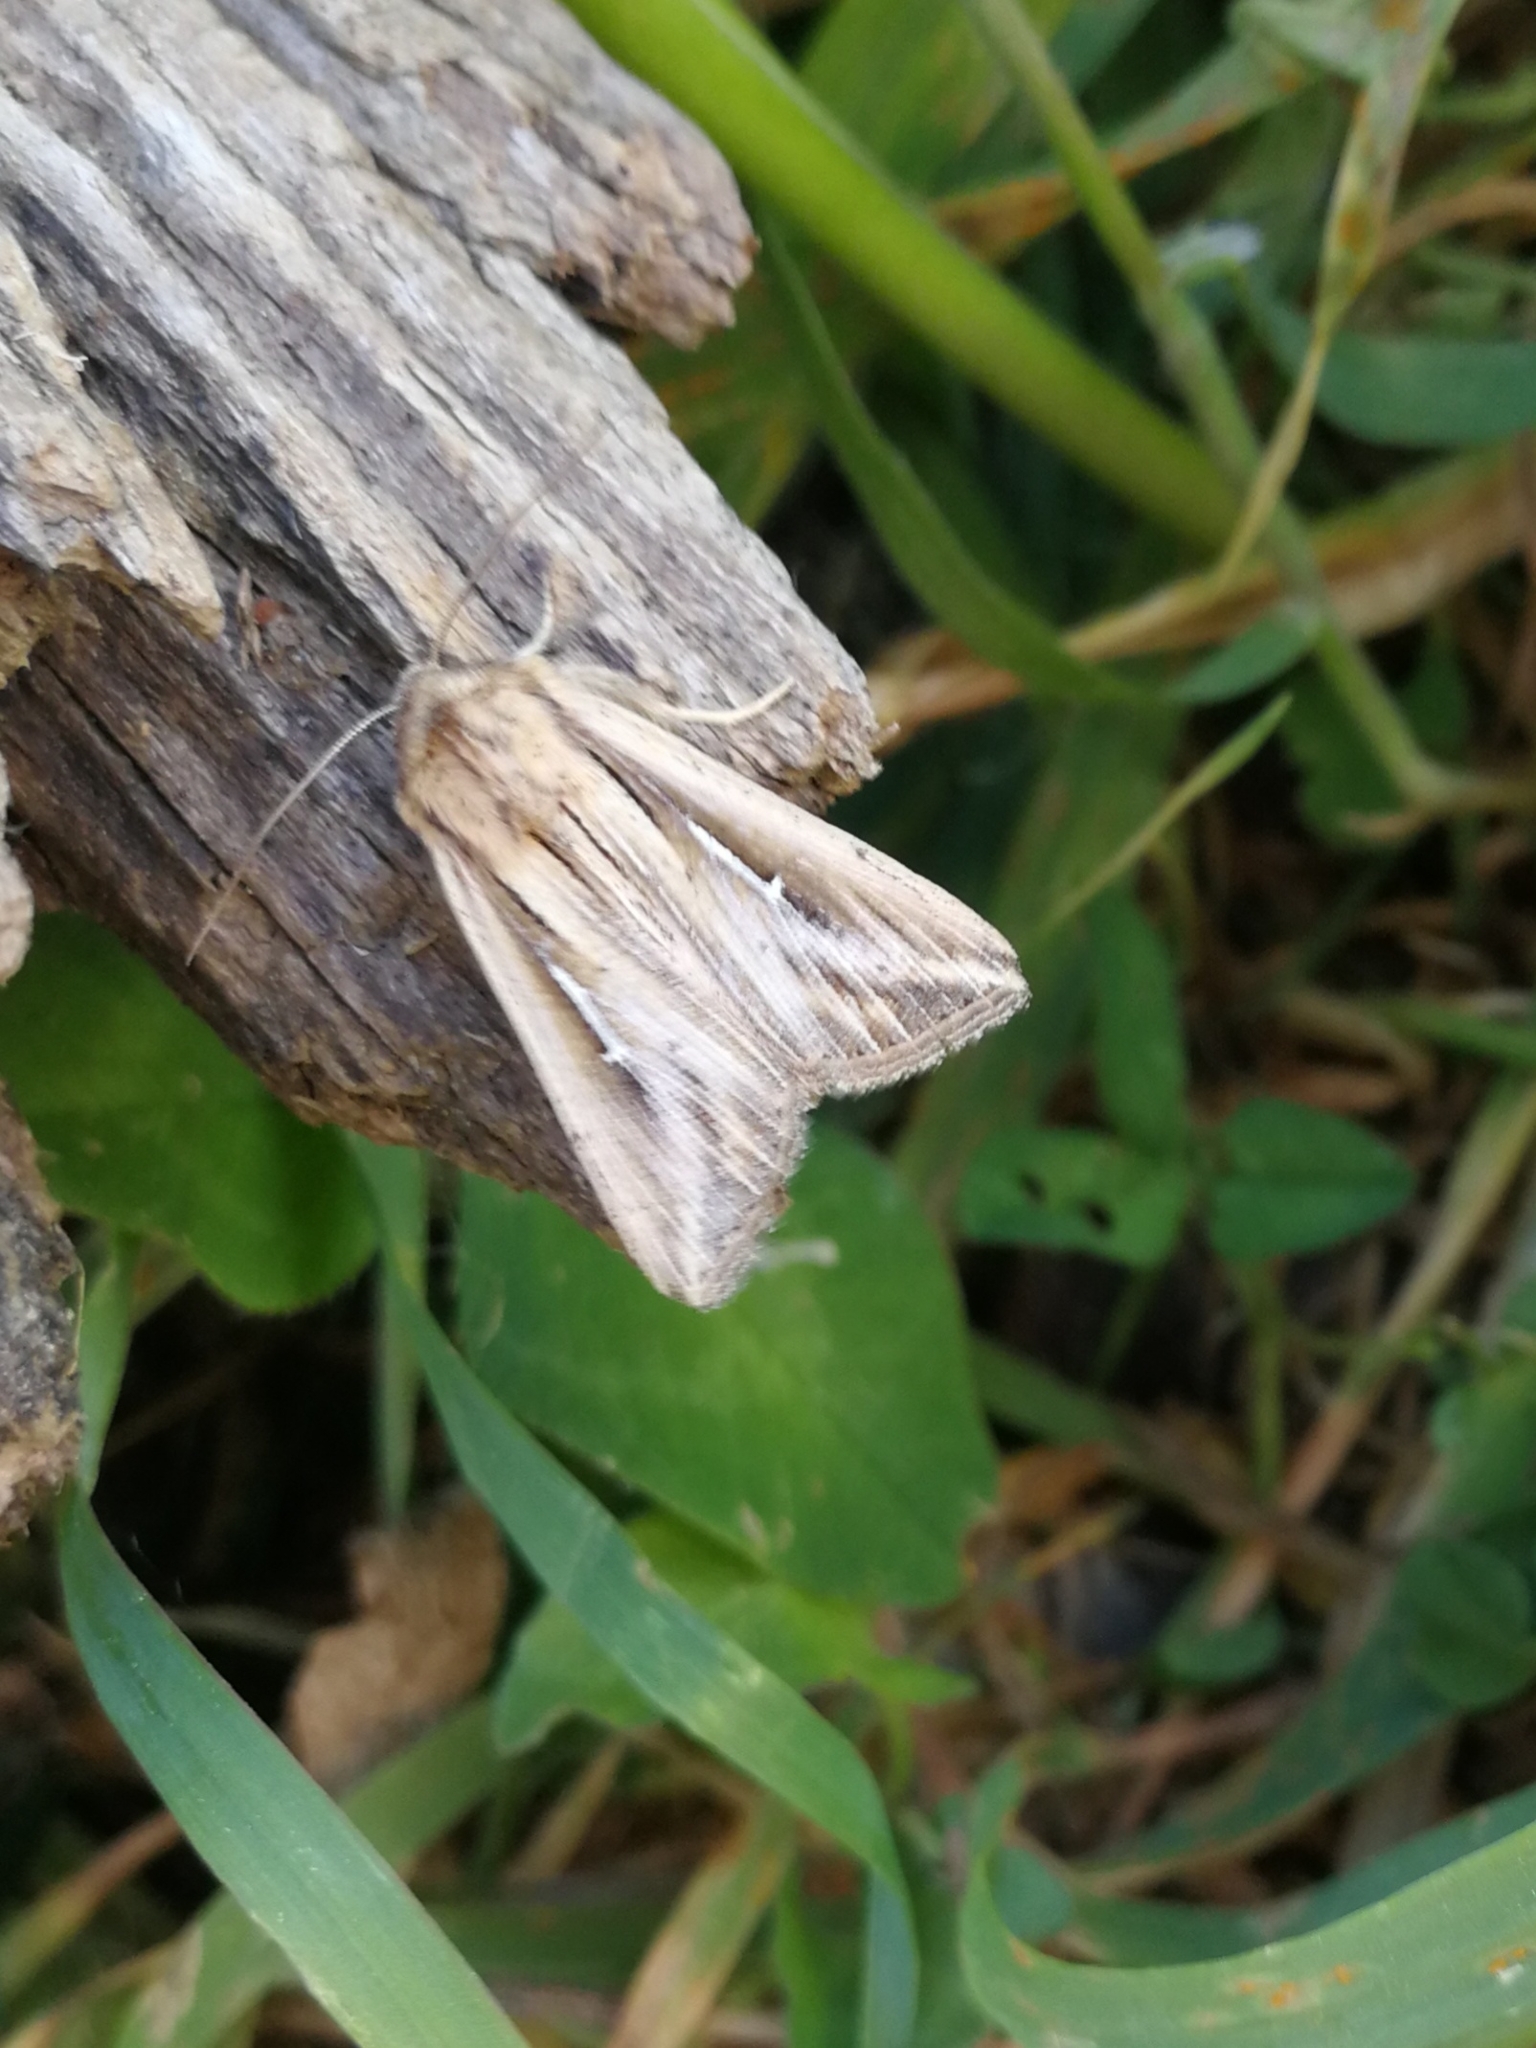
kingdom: Animalia
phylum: Arthropoda
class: Insecta
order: Lepidoptera
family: Noctuidae
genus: Mythimna
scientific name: Mythimna l-album
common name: L-album wainscot
